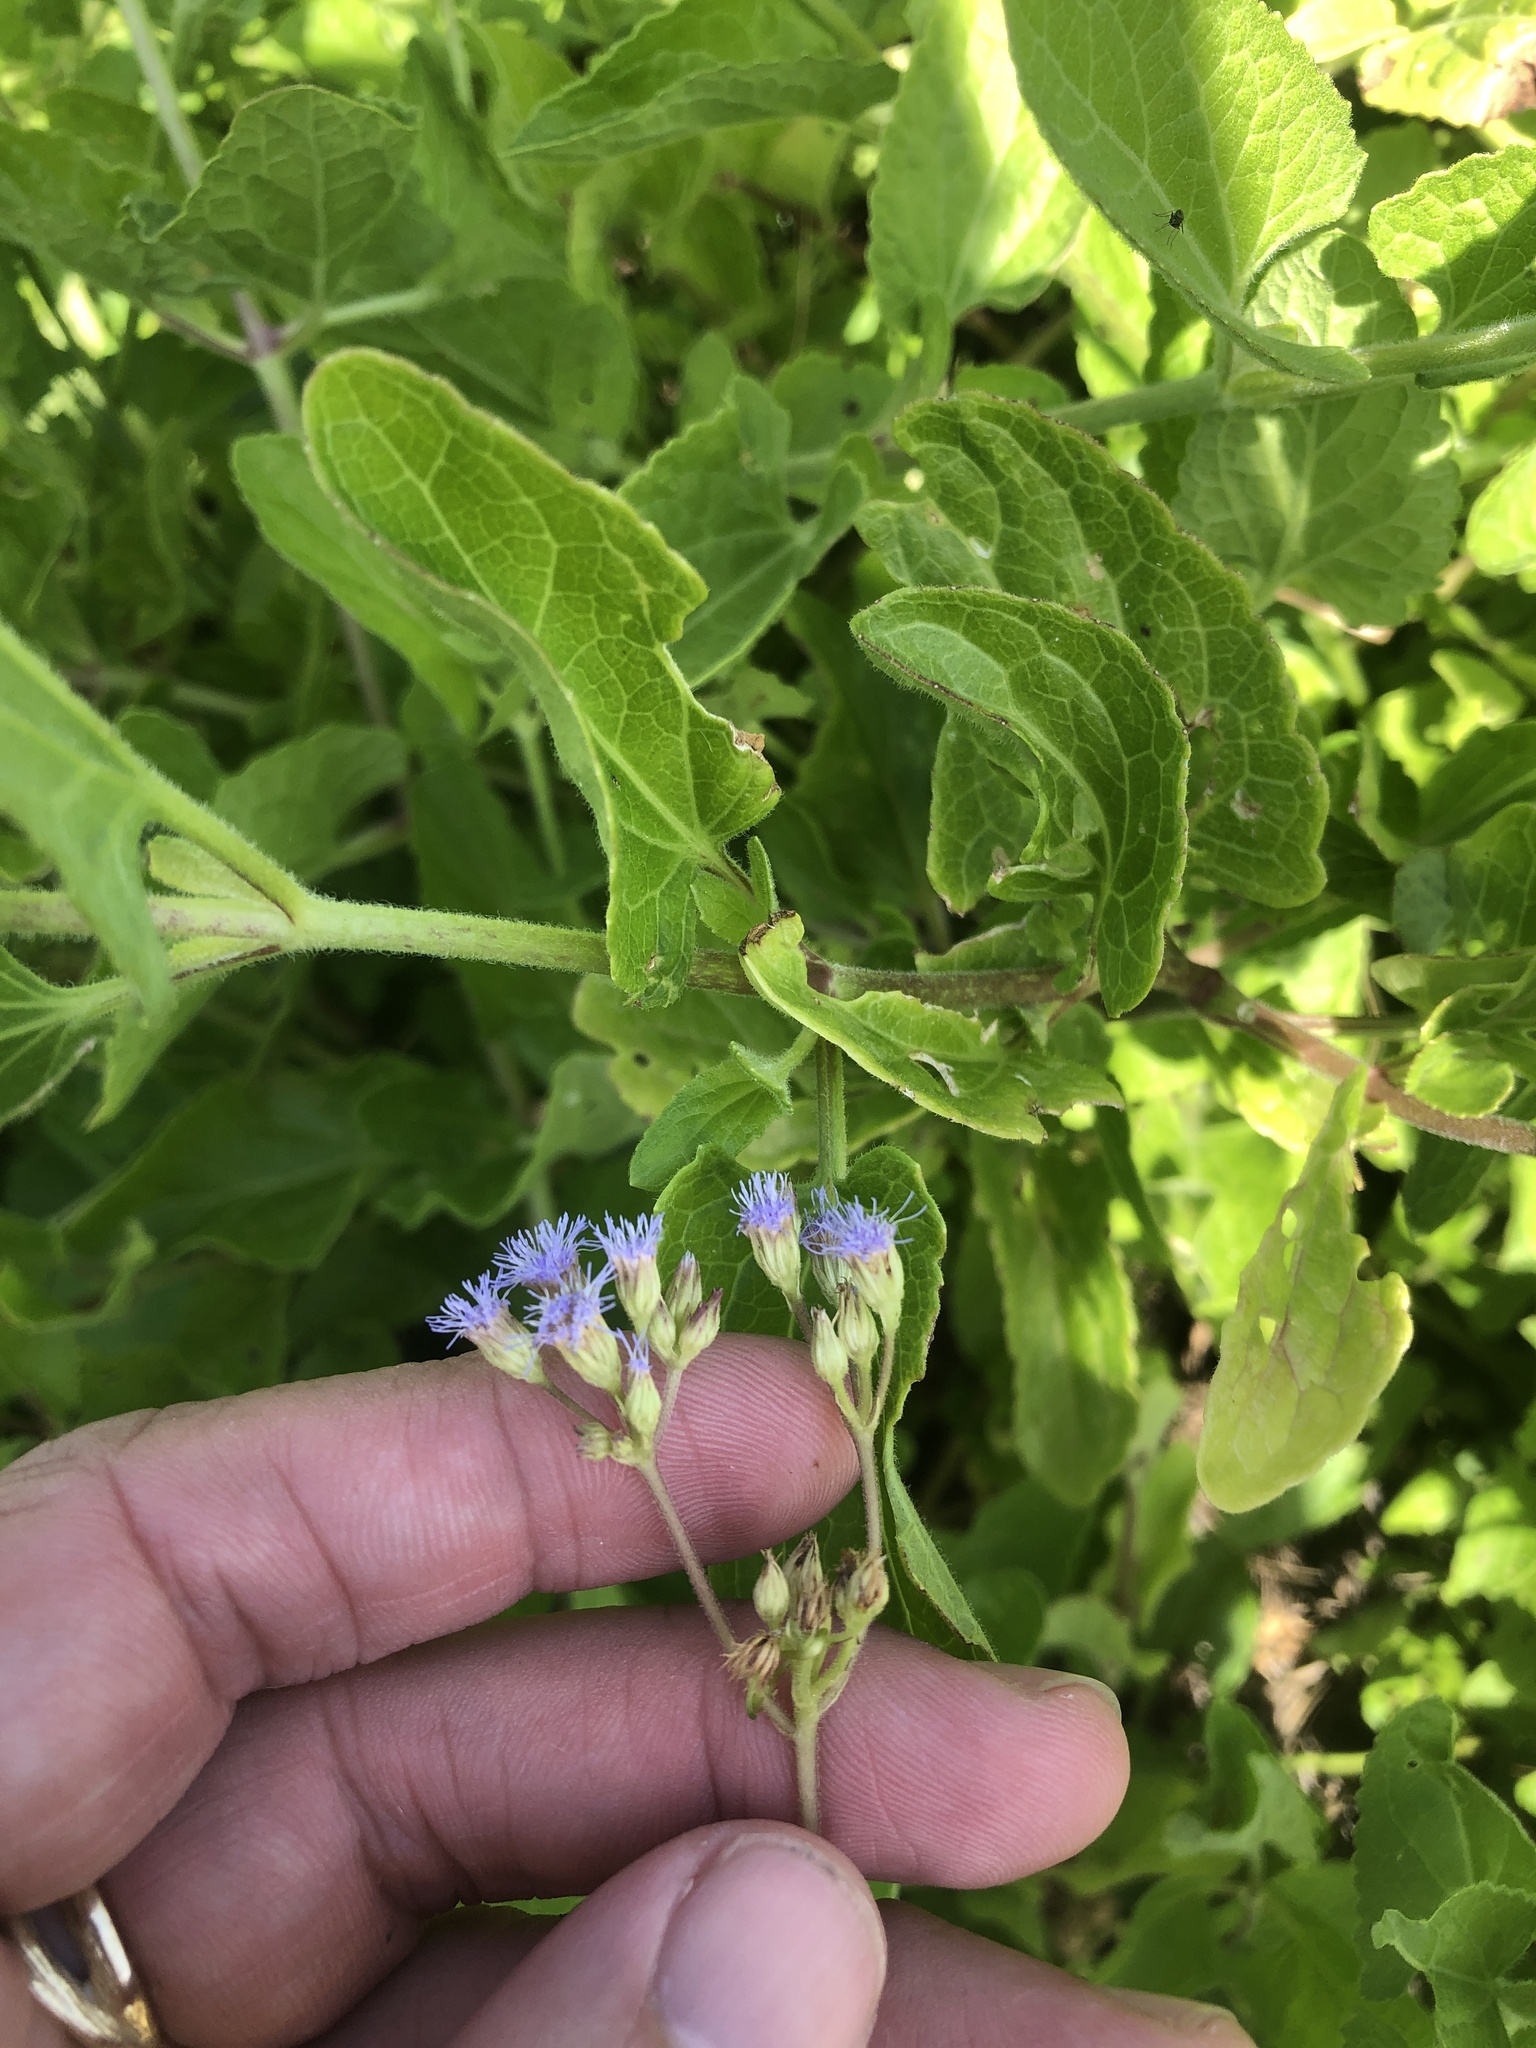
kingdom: Plantae
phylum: Tracheophyta
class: Magnoliopsida
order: Asterales
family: Asteraceae
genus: Conoclinium
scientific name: Conoclinium betonicifolium
